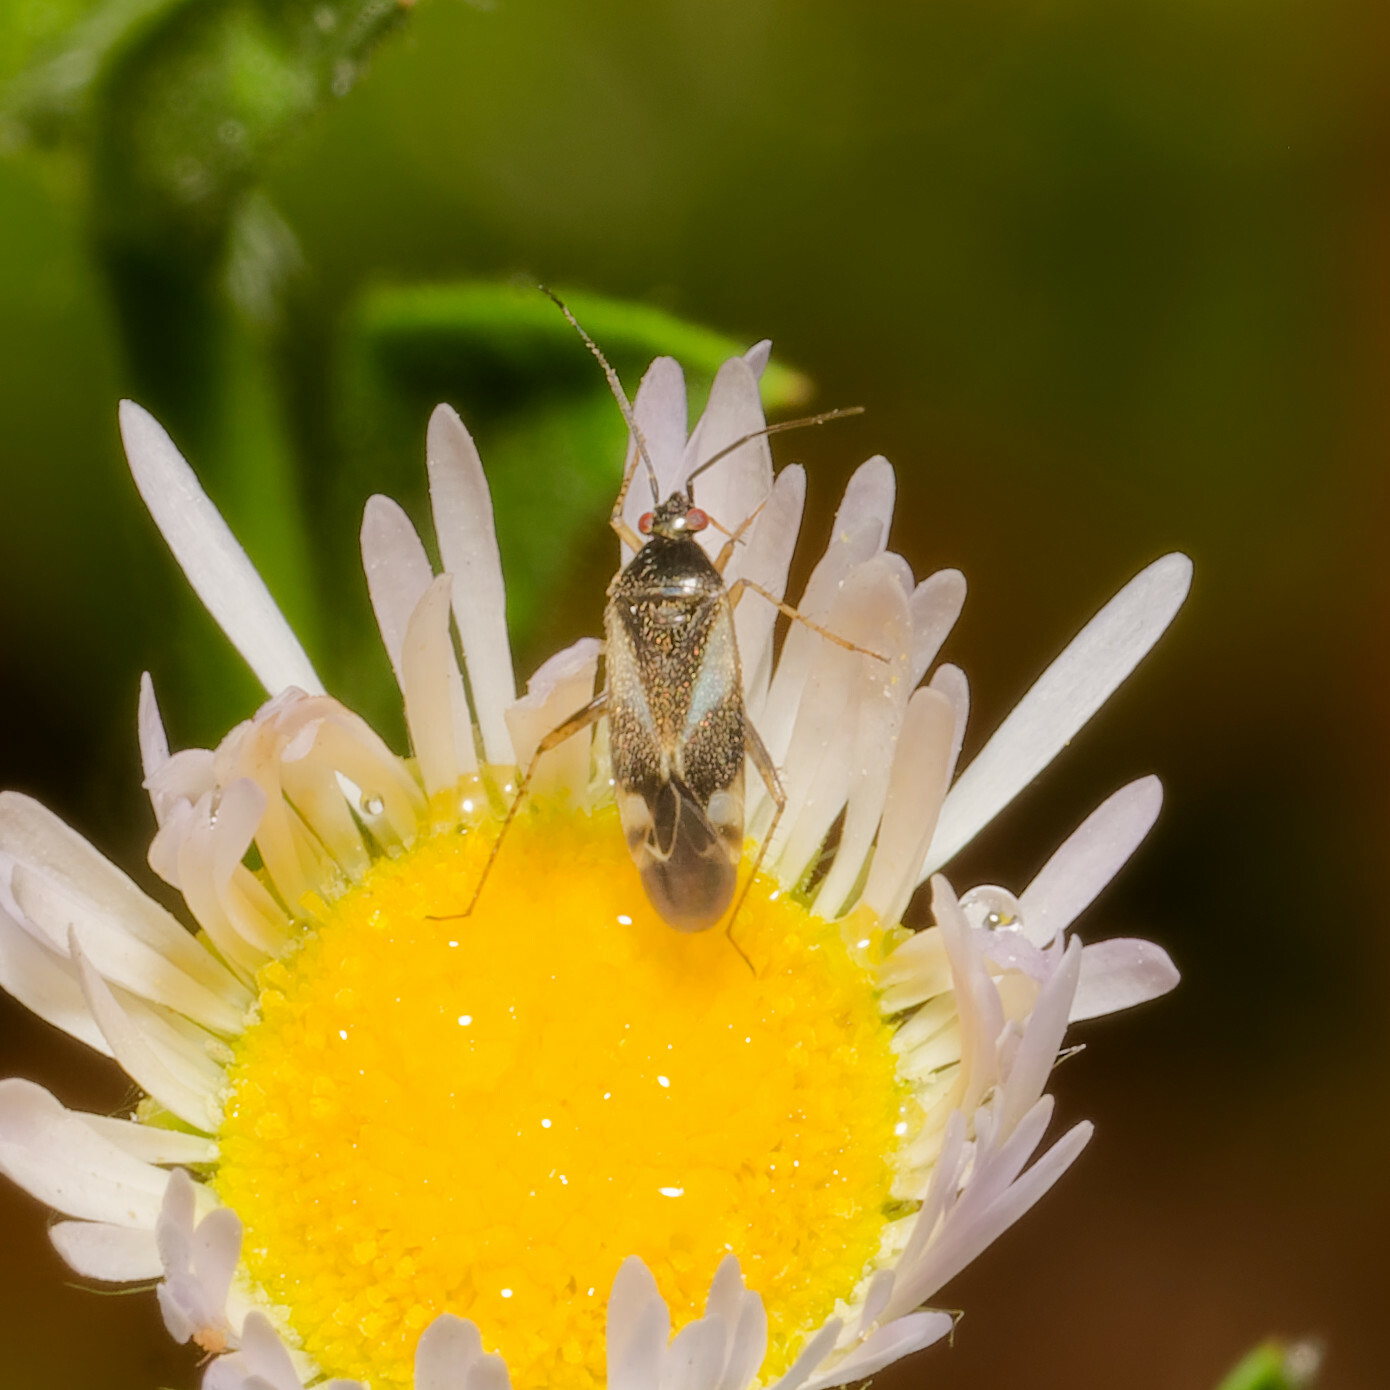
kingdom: Animalia
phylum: Arthropoda
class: Insecta
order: Hemiptera
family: Miridae
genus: Plagiognathus
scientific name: Plagiognathus obscurus
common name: Obscure plant bug
